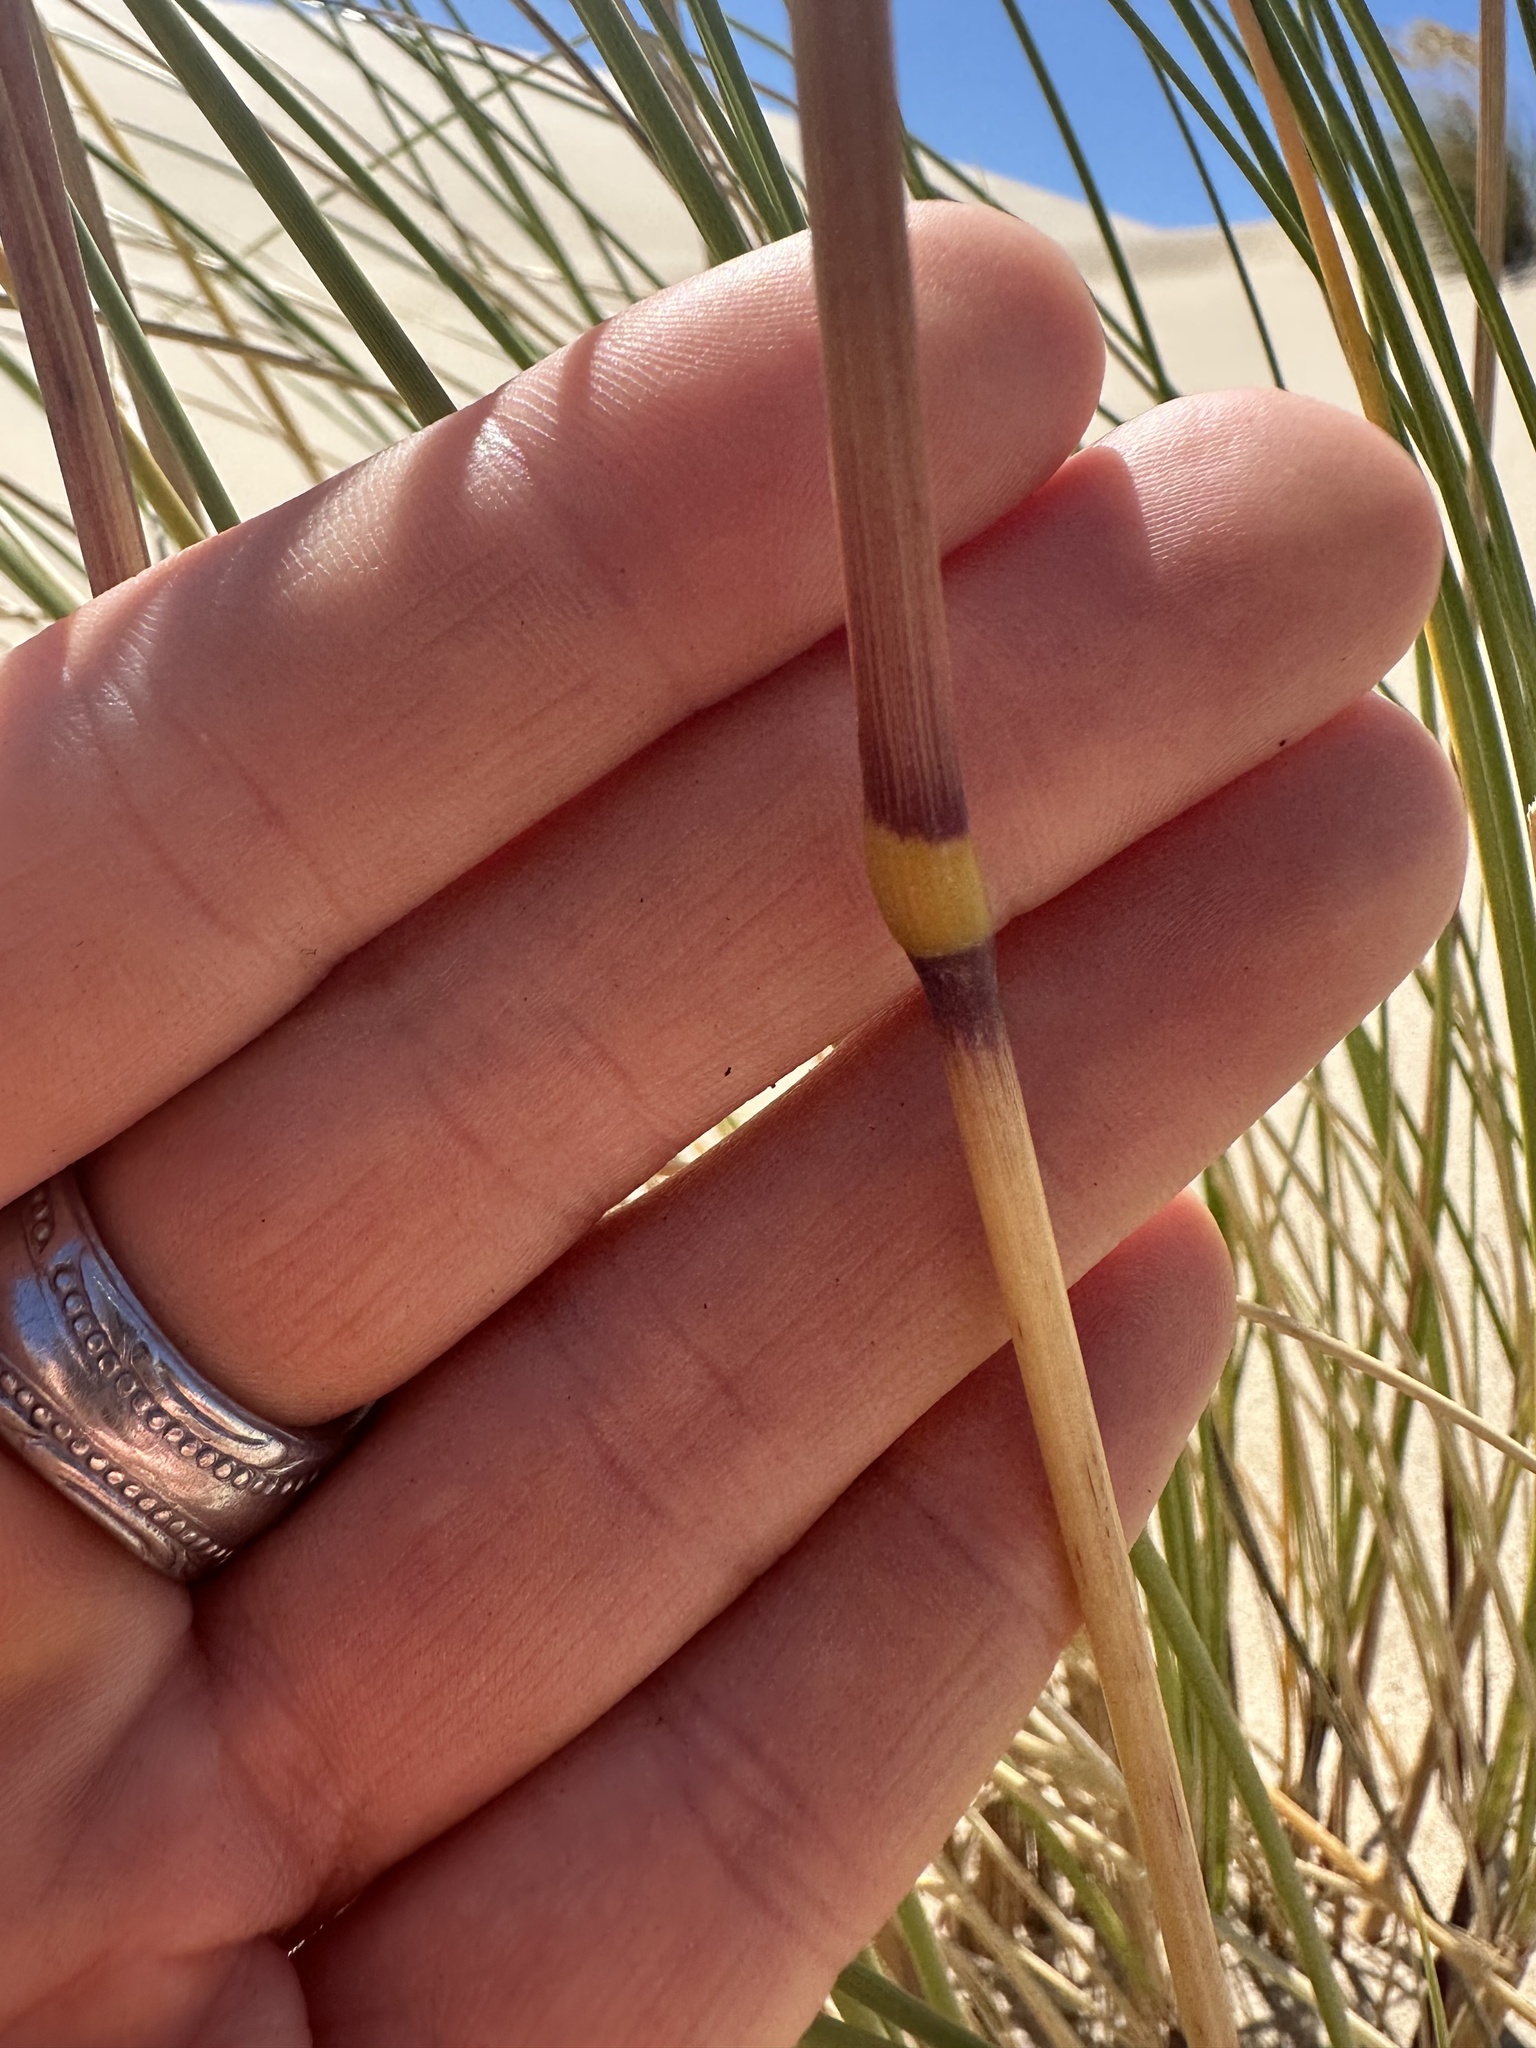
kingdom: Plantae
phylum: Tracheophyta
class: Liliopsida
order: Poales
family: Poaceae
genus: Calamagrostis
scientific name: Calamagrostis arenaria
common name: European beachgrass
